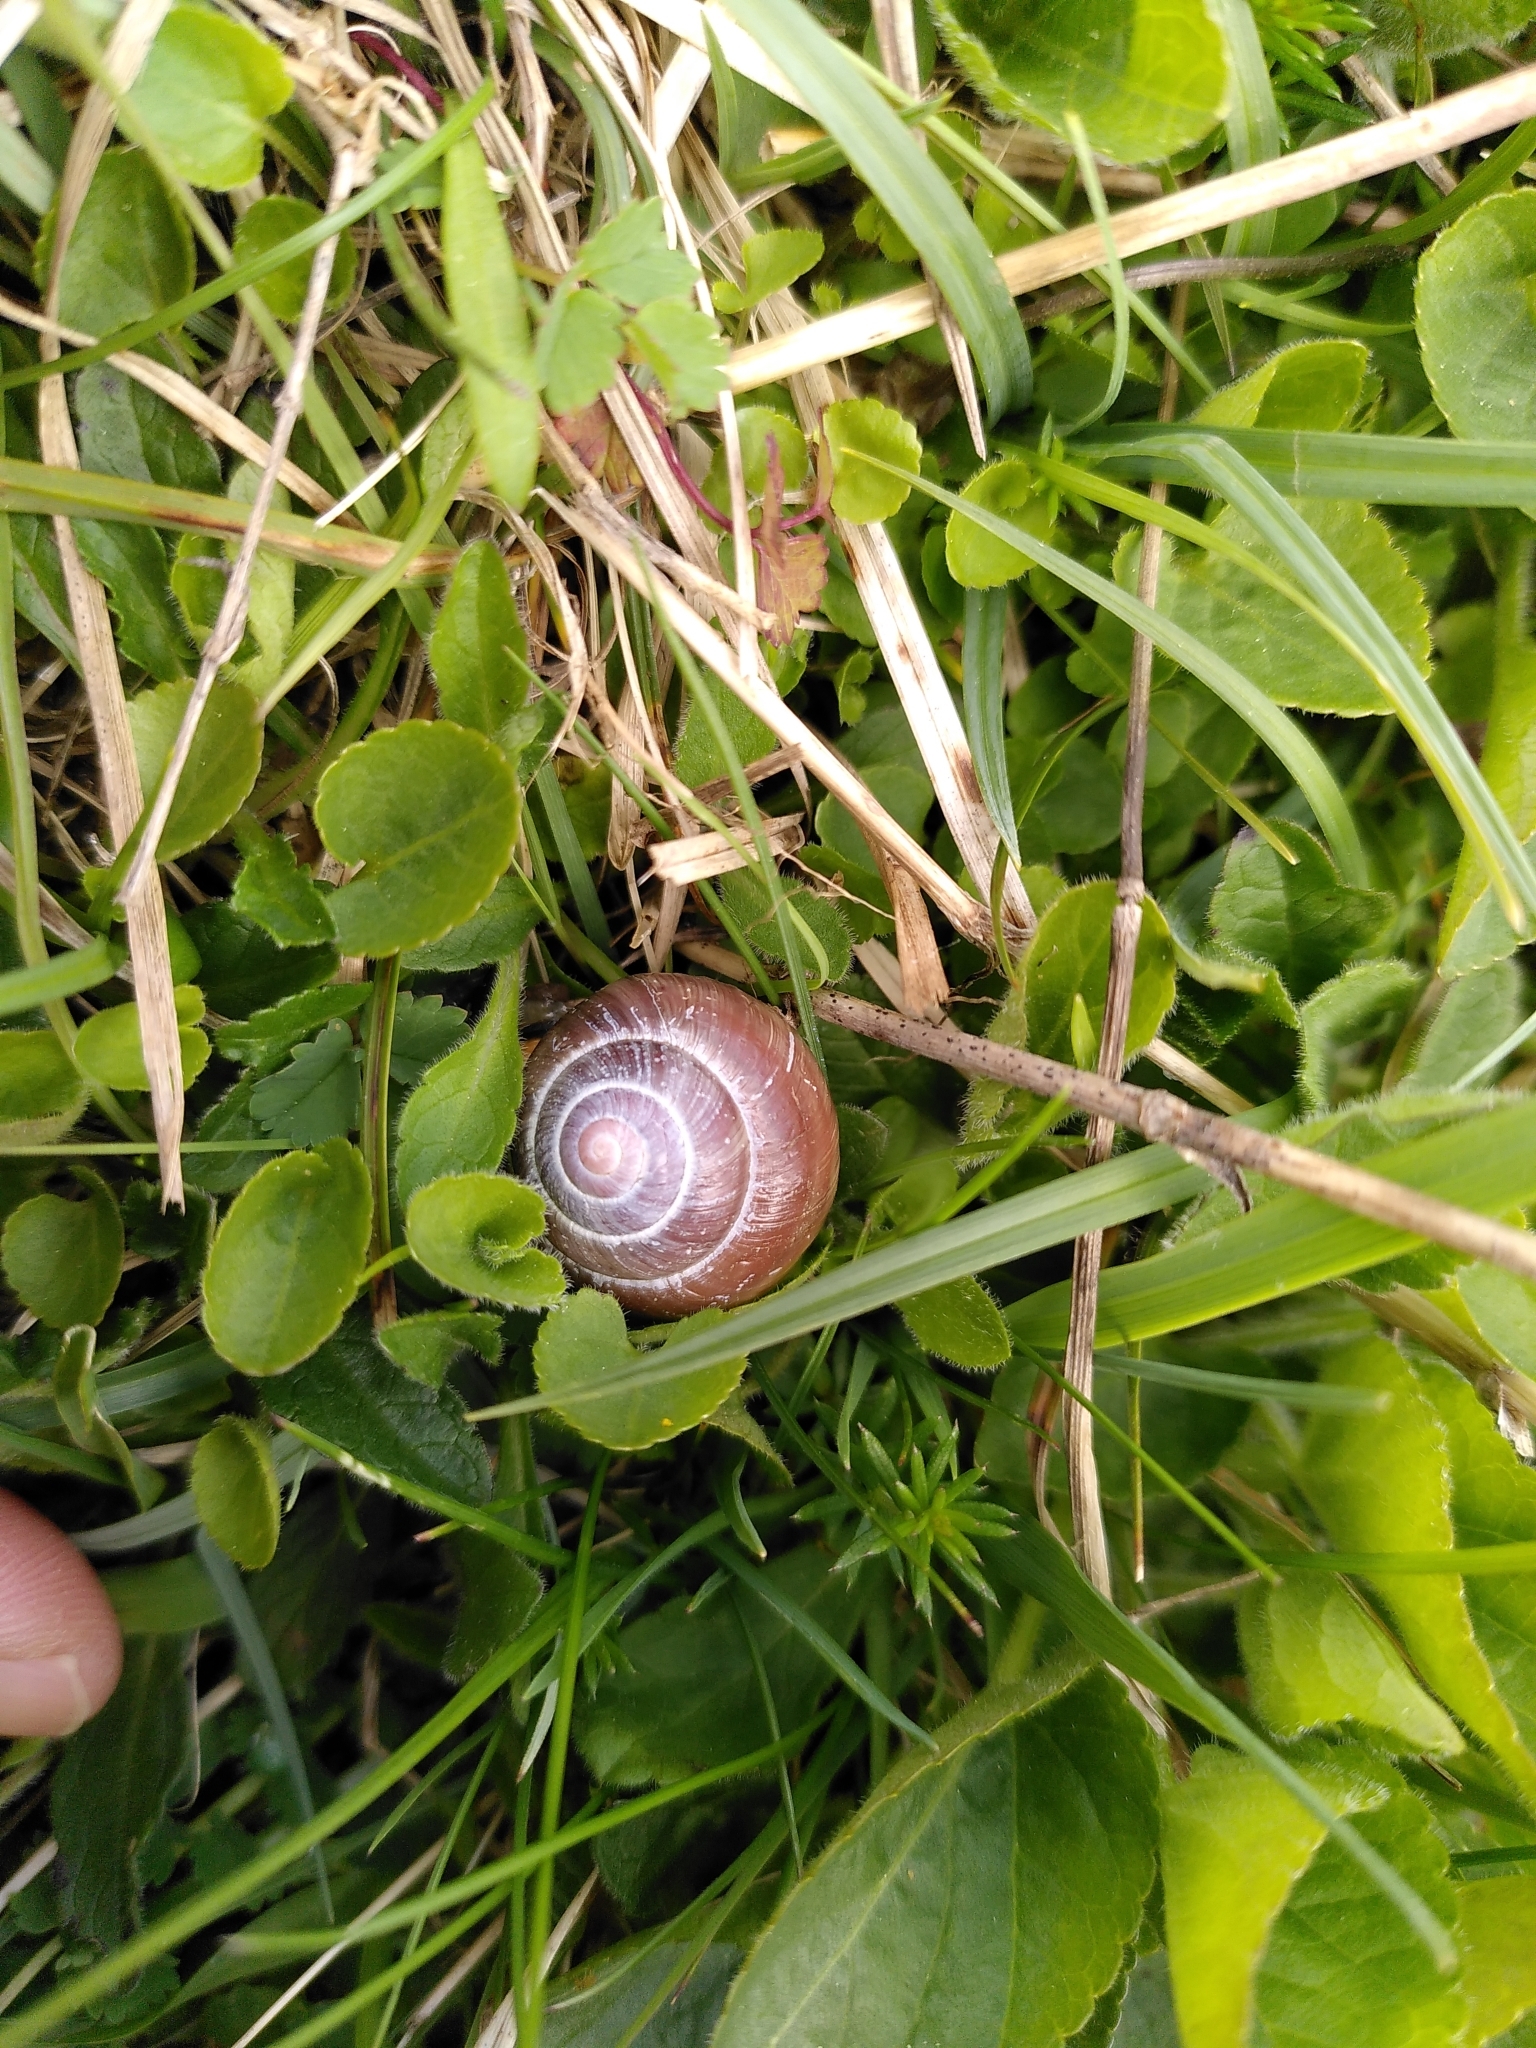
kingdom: Animalia
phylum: Mollusca
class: Gastropoda
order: Stylommatophora
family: Helicidae
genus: Cepaea
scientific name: Cepaea nemoralis
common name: Grovesnail
